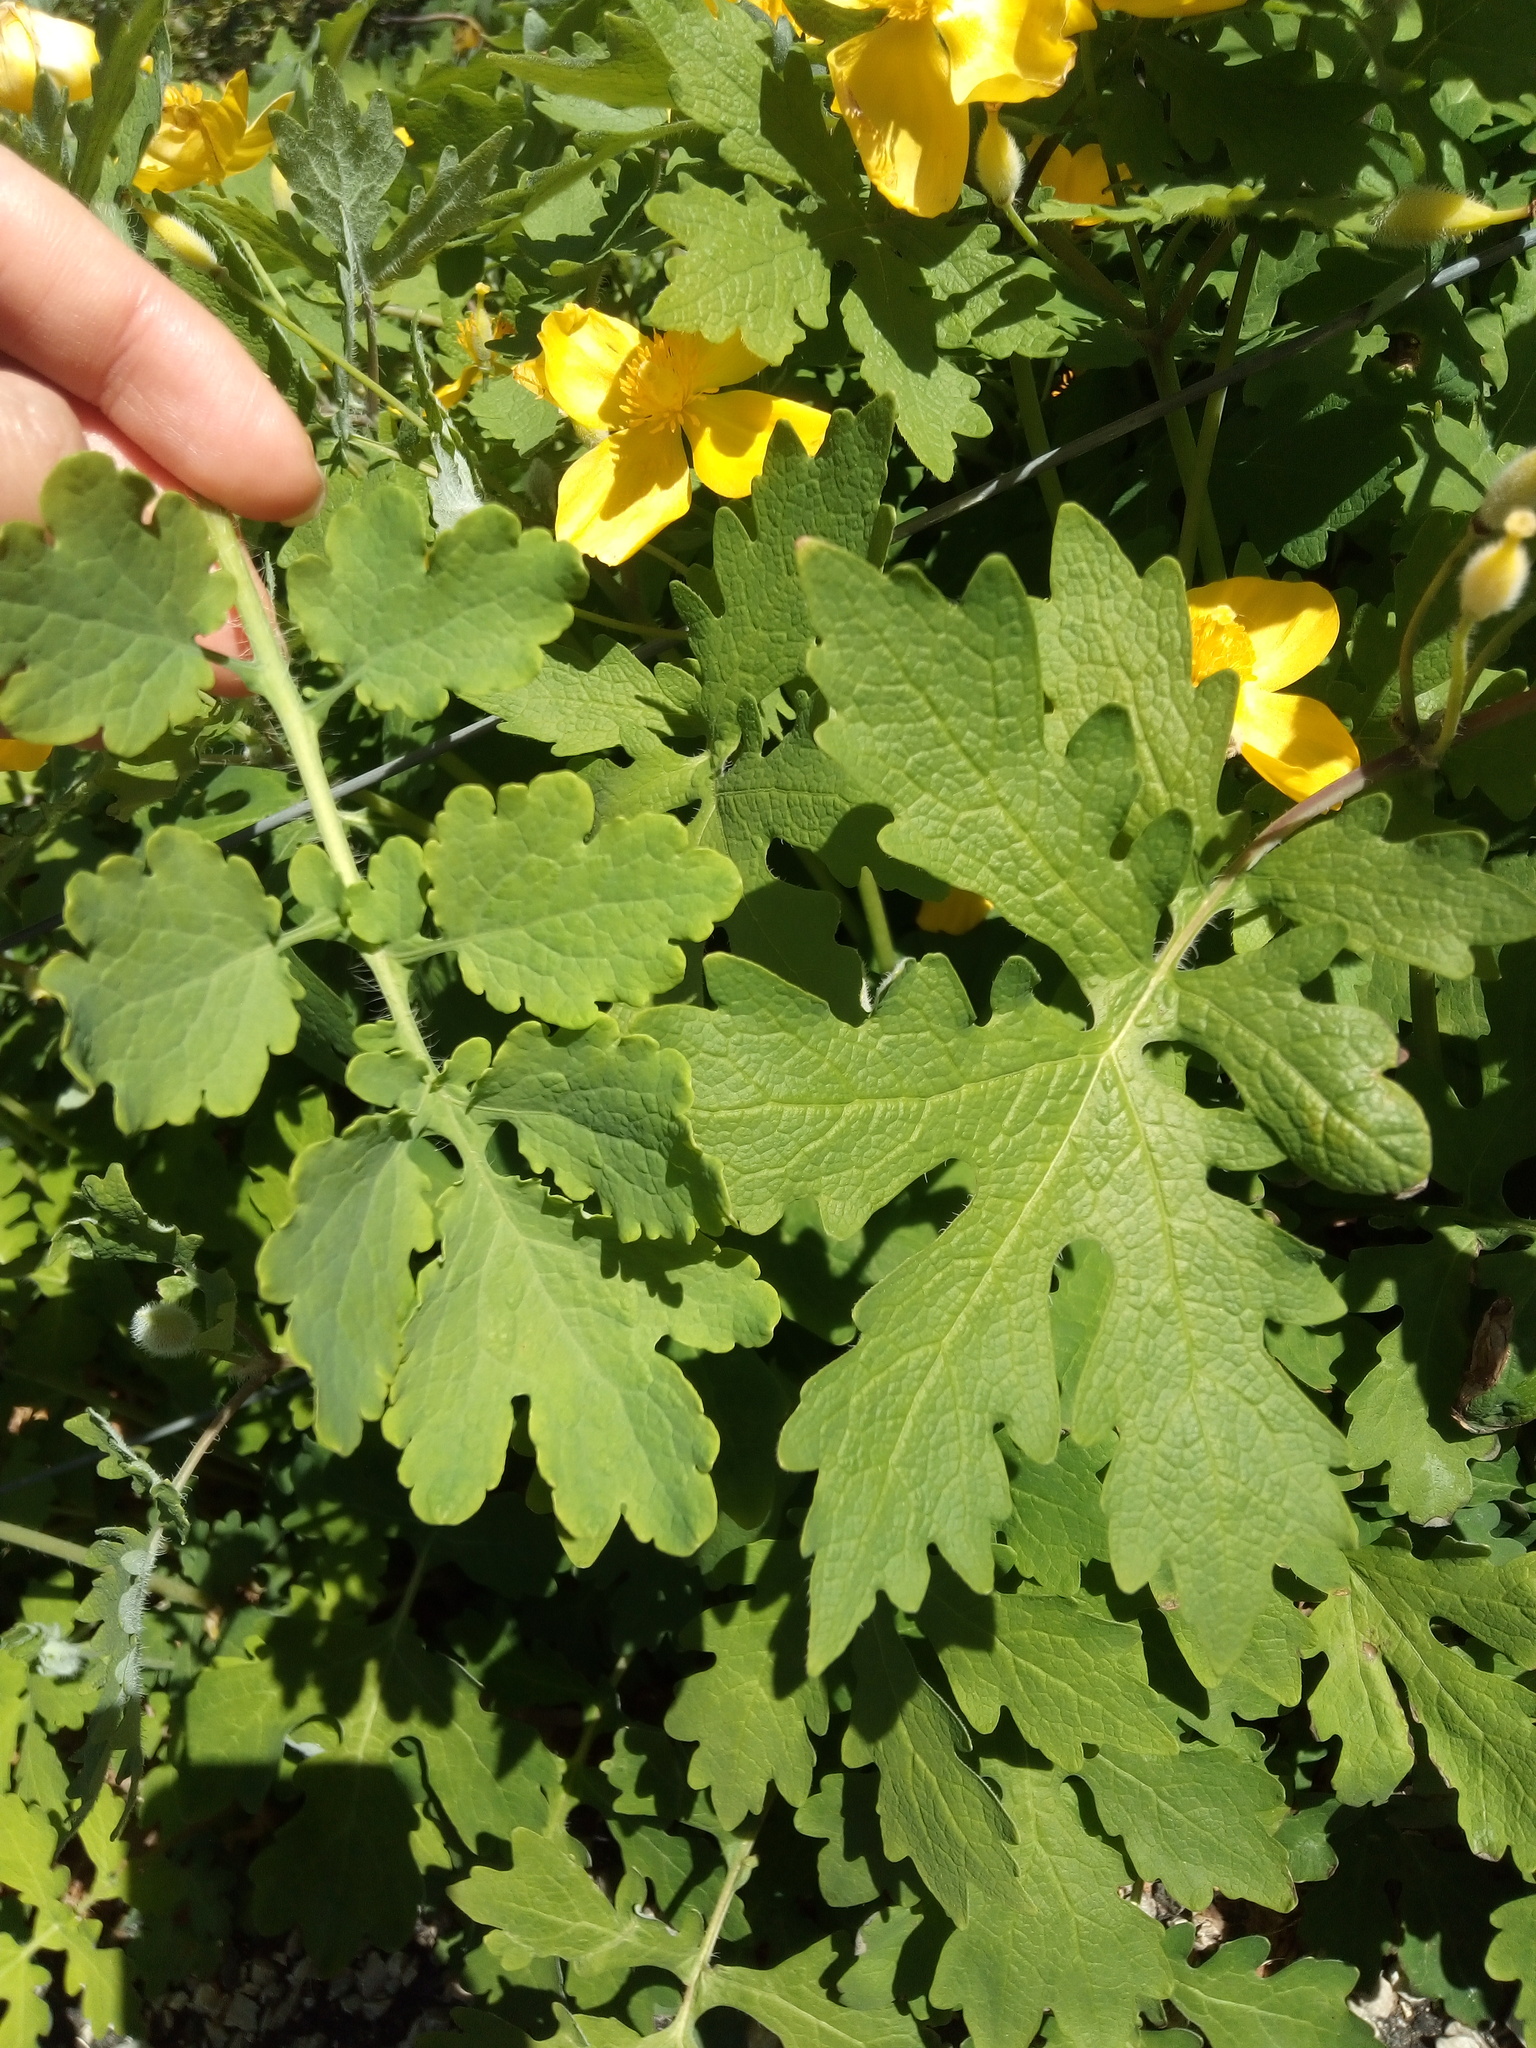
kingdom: Plantae
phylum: Tracheophyta
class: Magnoliopsida
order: Ranunculales
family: Papaveraceae
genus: Stylophorum
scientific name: Stylophorum diphyllum
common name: Celandine poppy
